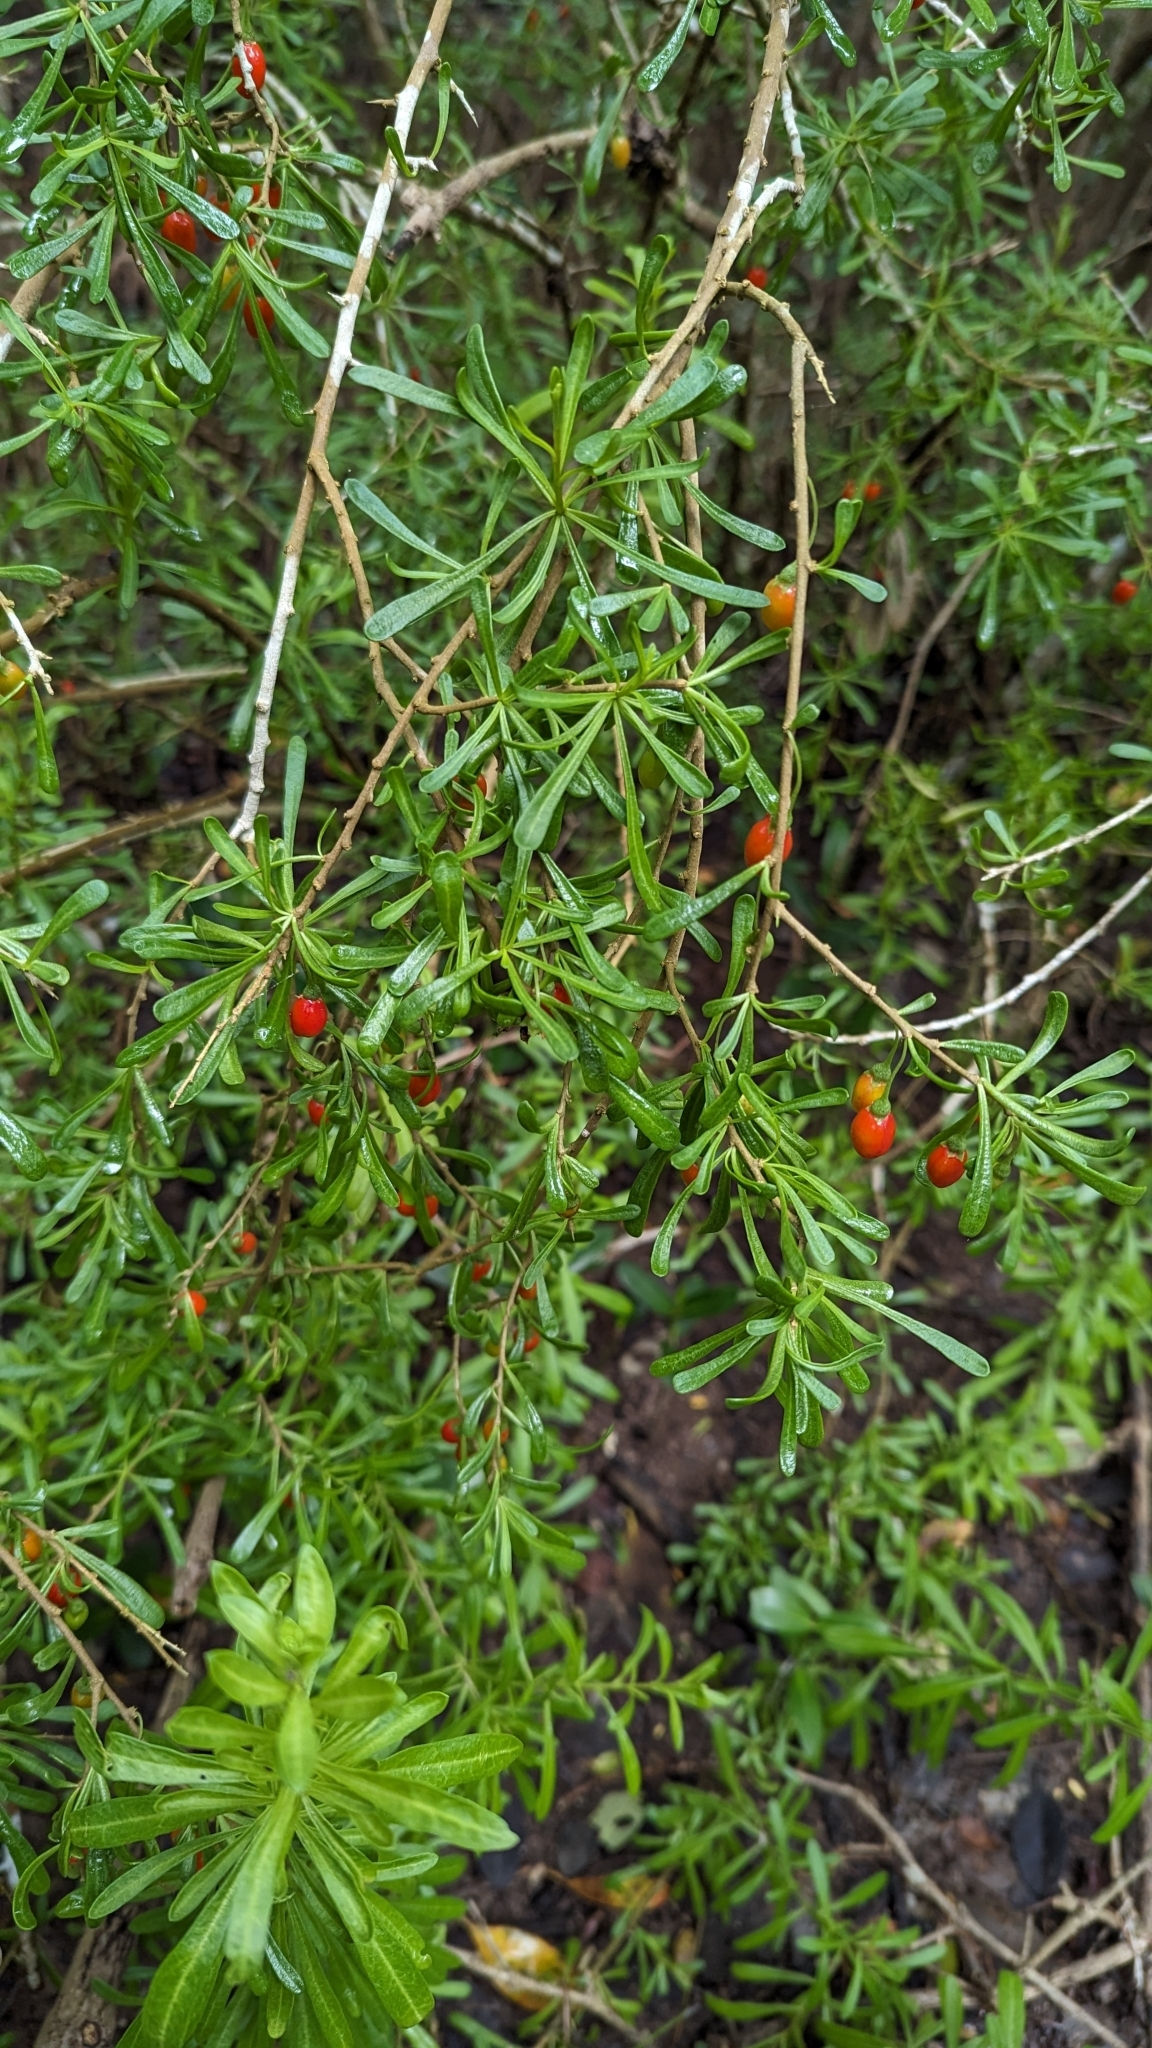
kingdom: Plantae
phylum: Tracheophyta
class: Magnoliopsida
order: Solanales
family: Solanaceae
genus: Lycium
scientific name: Lycium carolinianum
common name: Christmasberry
